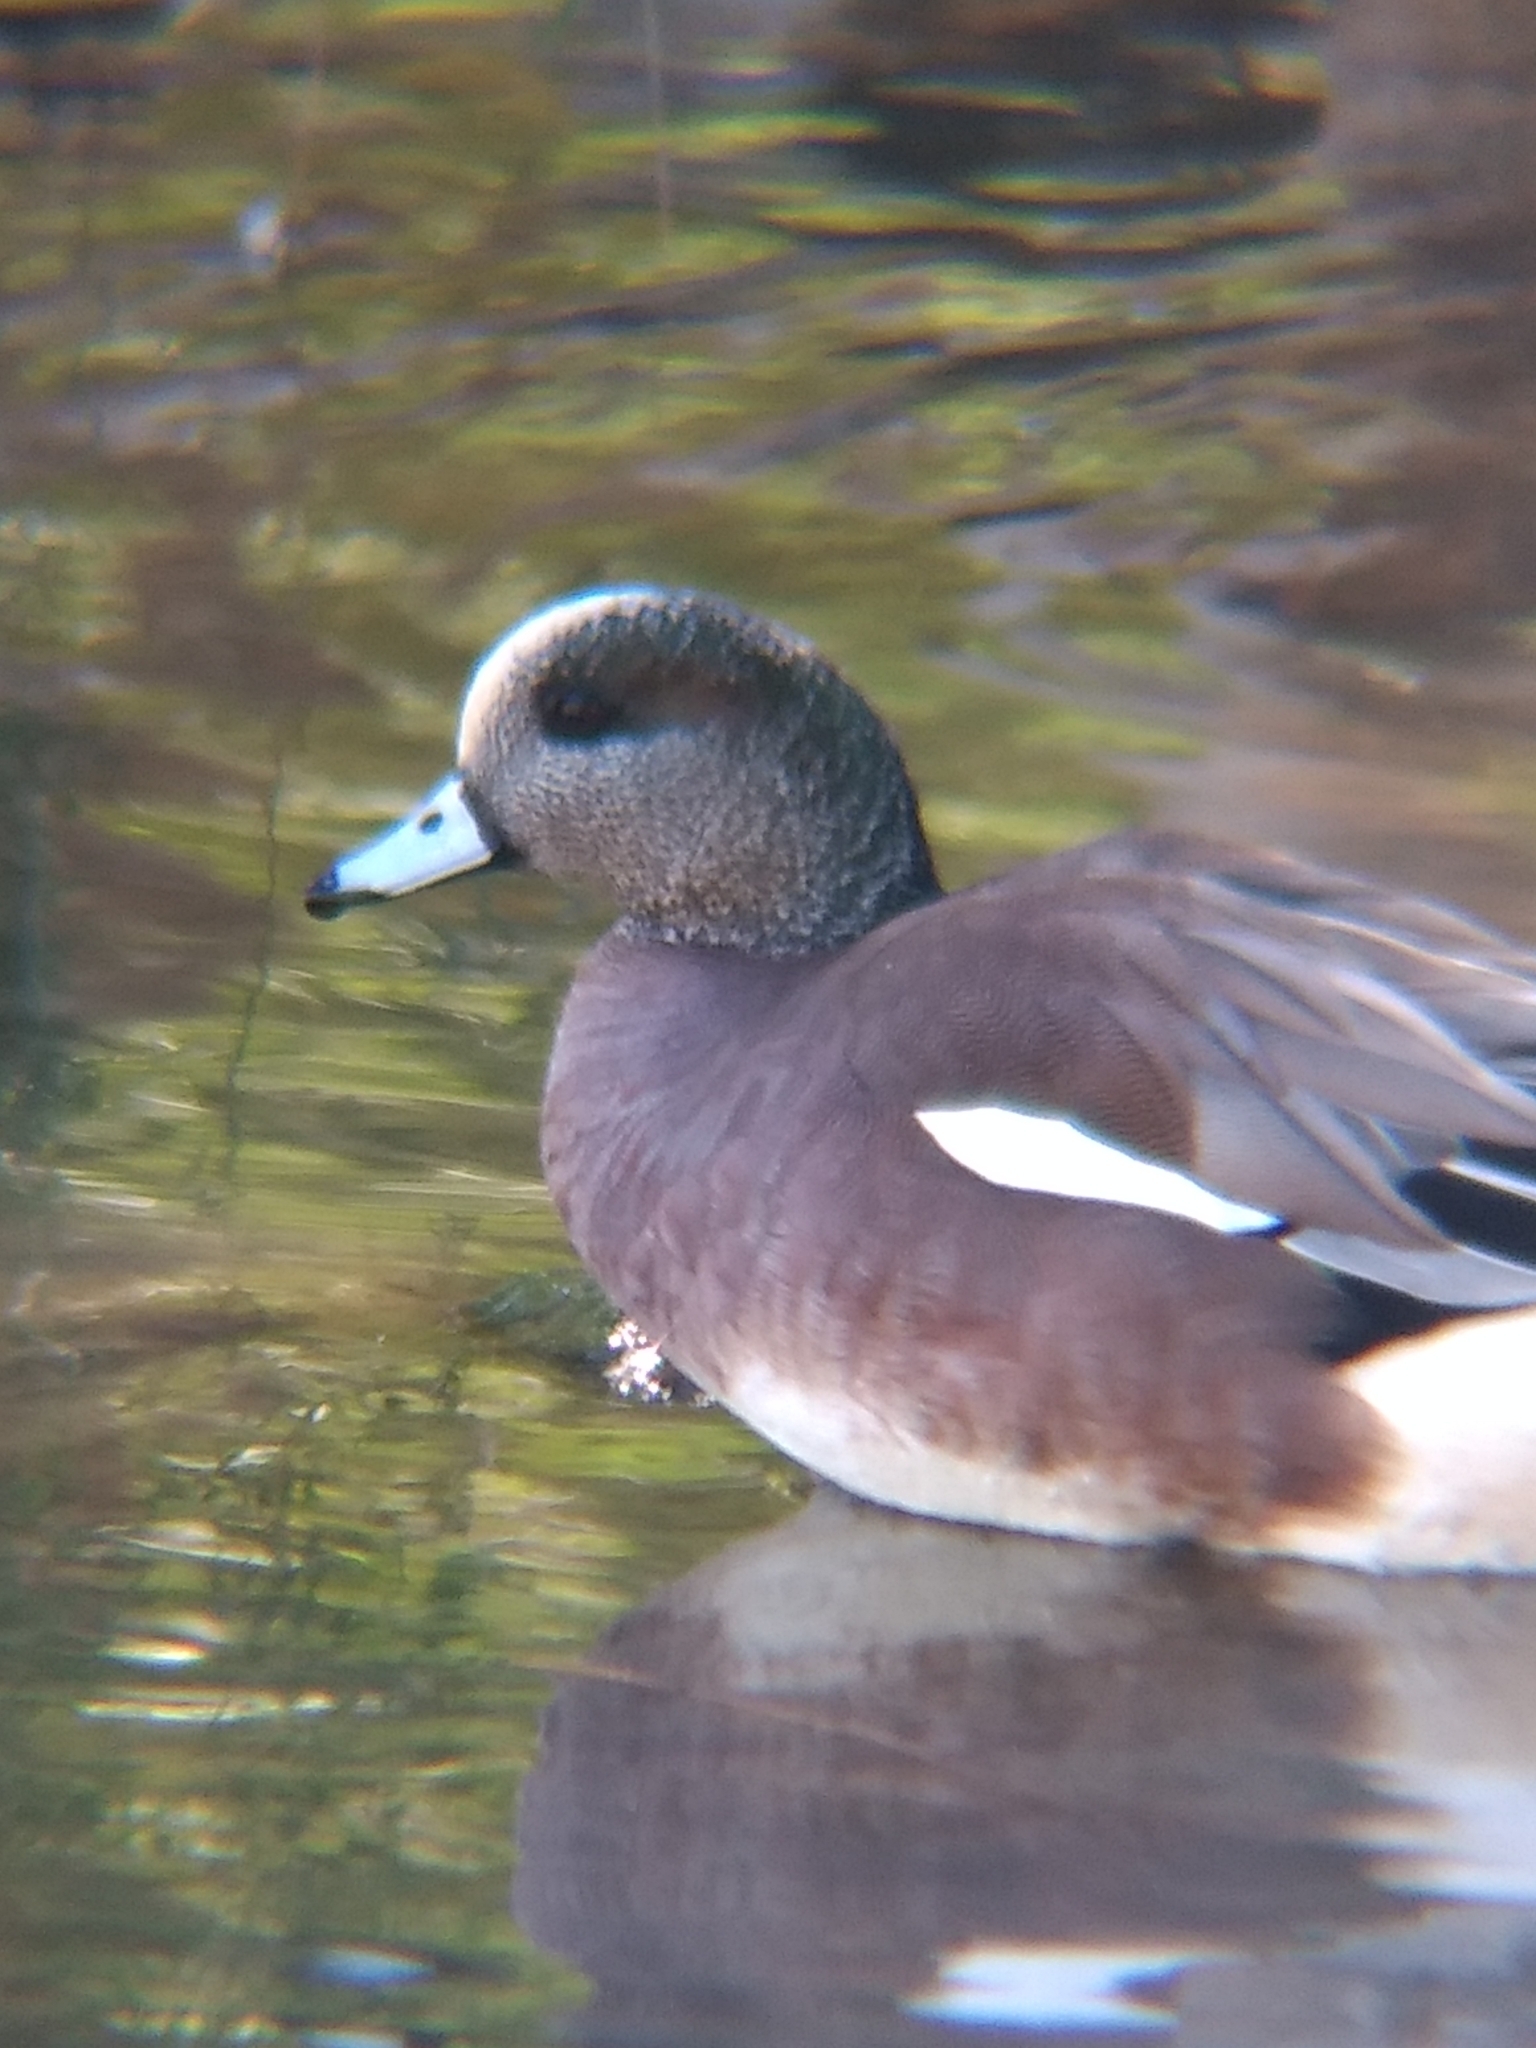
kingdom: Animalia
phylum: Chordata
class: Aves
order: Anseriformes
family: Anatidae
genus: Mareca
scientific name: Mareca americana
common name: American wigeon
